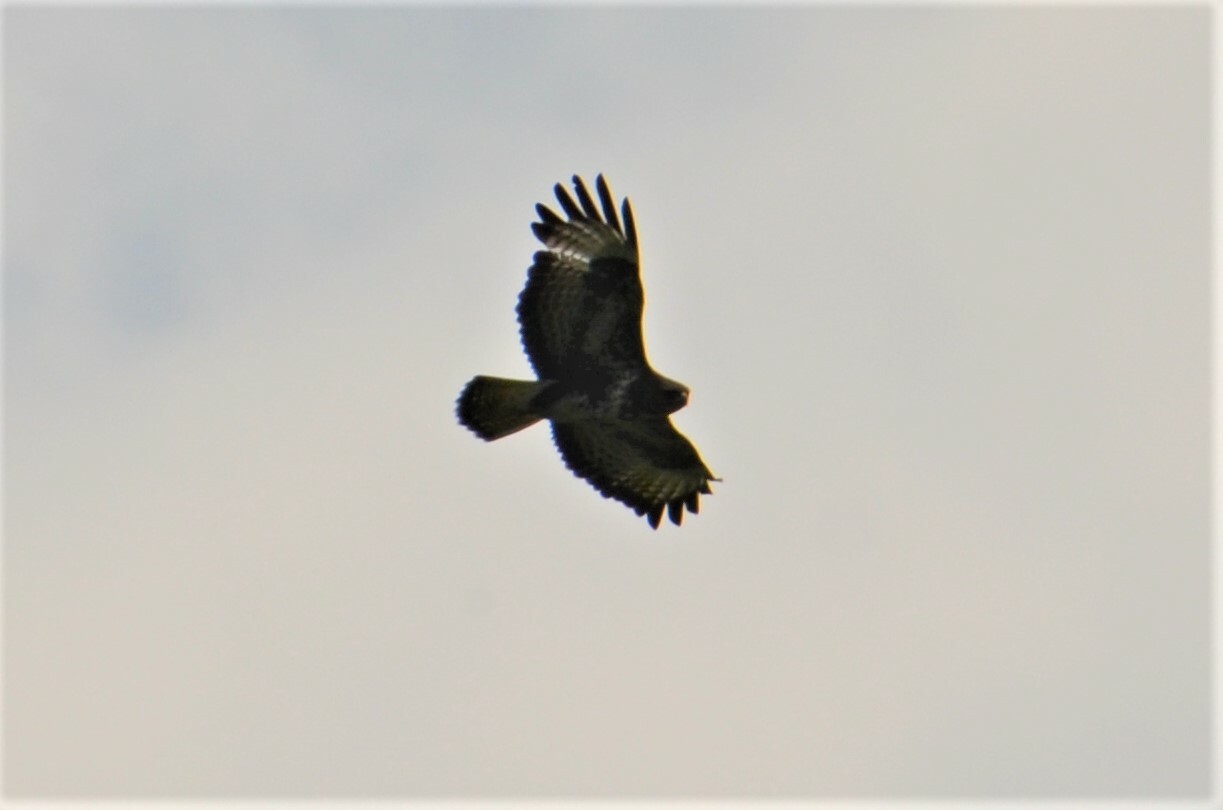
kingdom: Animalia
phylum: Chordata
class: Aves
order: Accipitriformes
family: Accipitridae
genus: Buteo
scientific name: Buteo buteo
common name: Common buzzard
